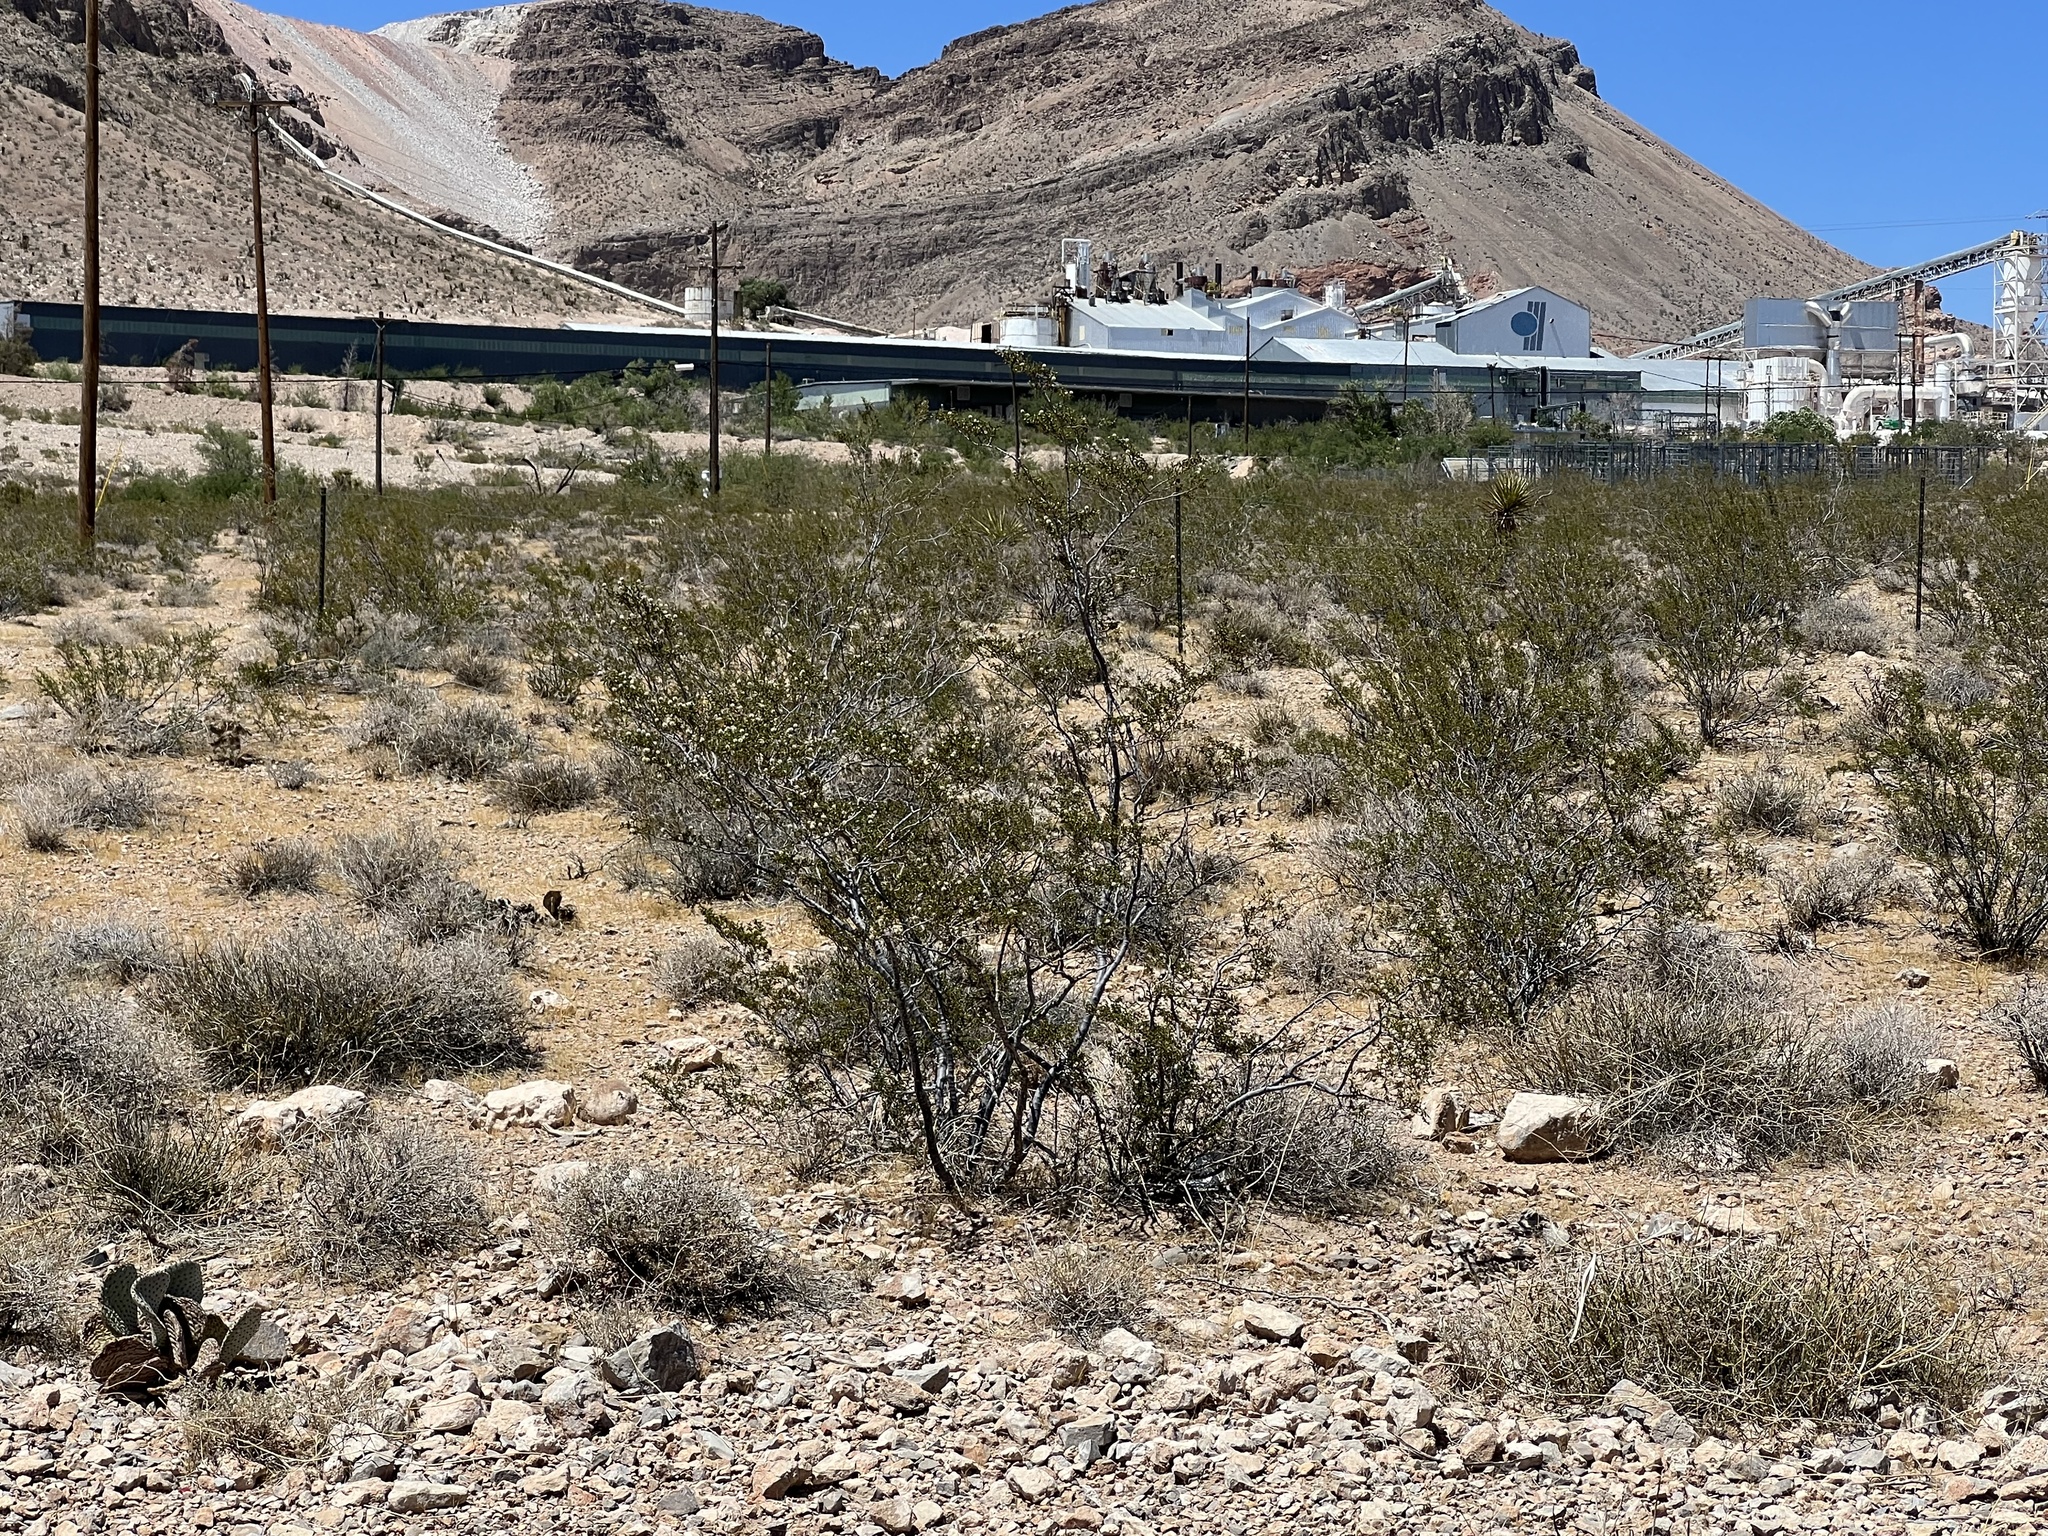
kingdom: Plantae
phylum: Tracheophyta
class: Magnoliopsida
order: Zygophyllales
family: Zygophyllaceae
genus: Larrea
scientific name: Larrea tridentata
